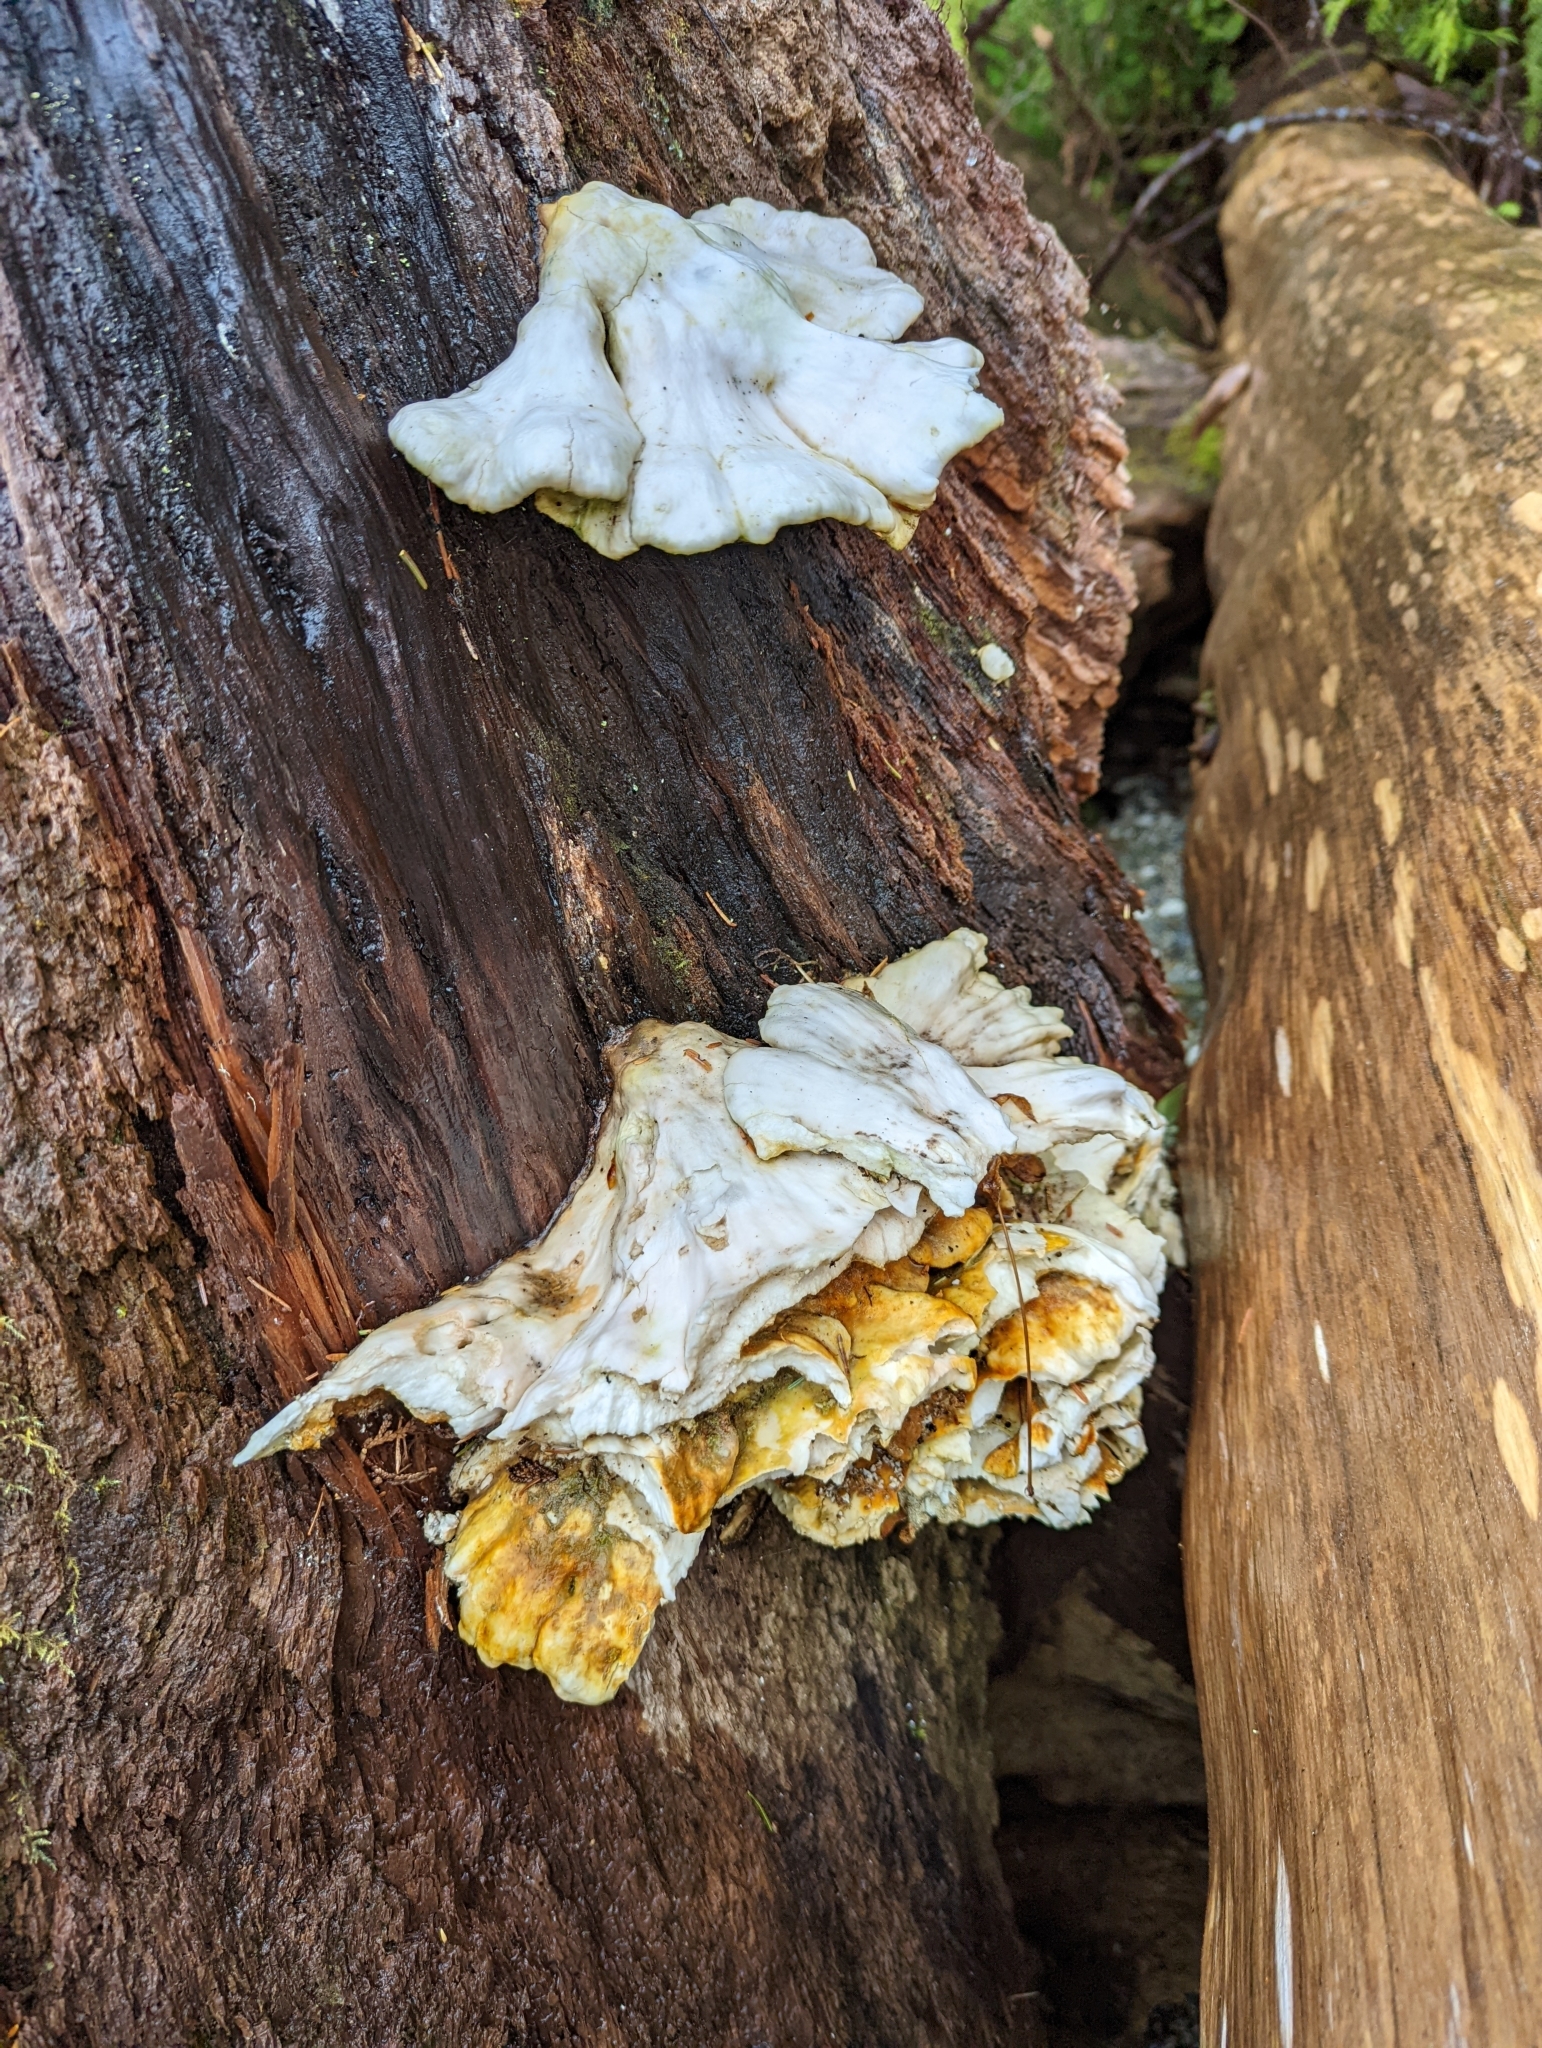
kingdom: Fungi
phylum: Basidiomycota
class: Agaricomycetes
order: Polyporales
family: Laetiporaceae
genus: Laetiporus
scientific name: Laetiporus conifericola
